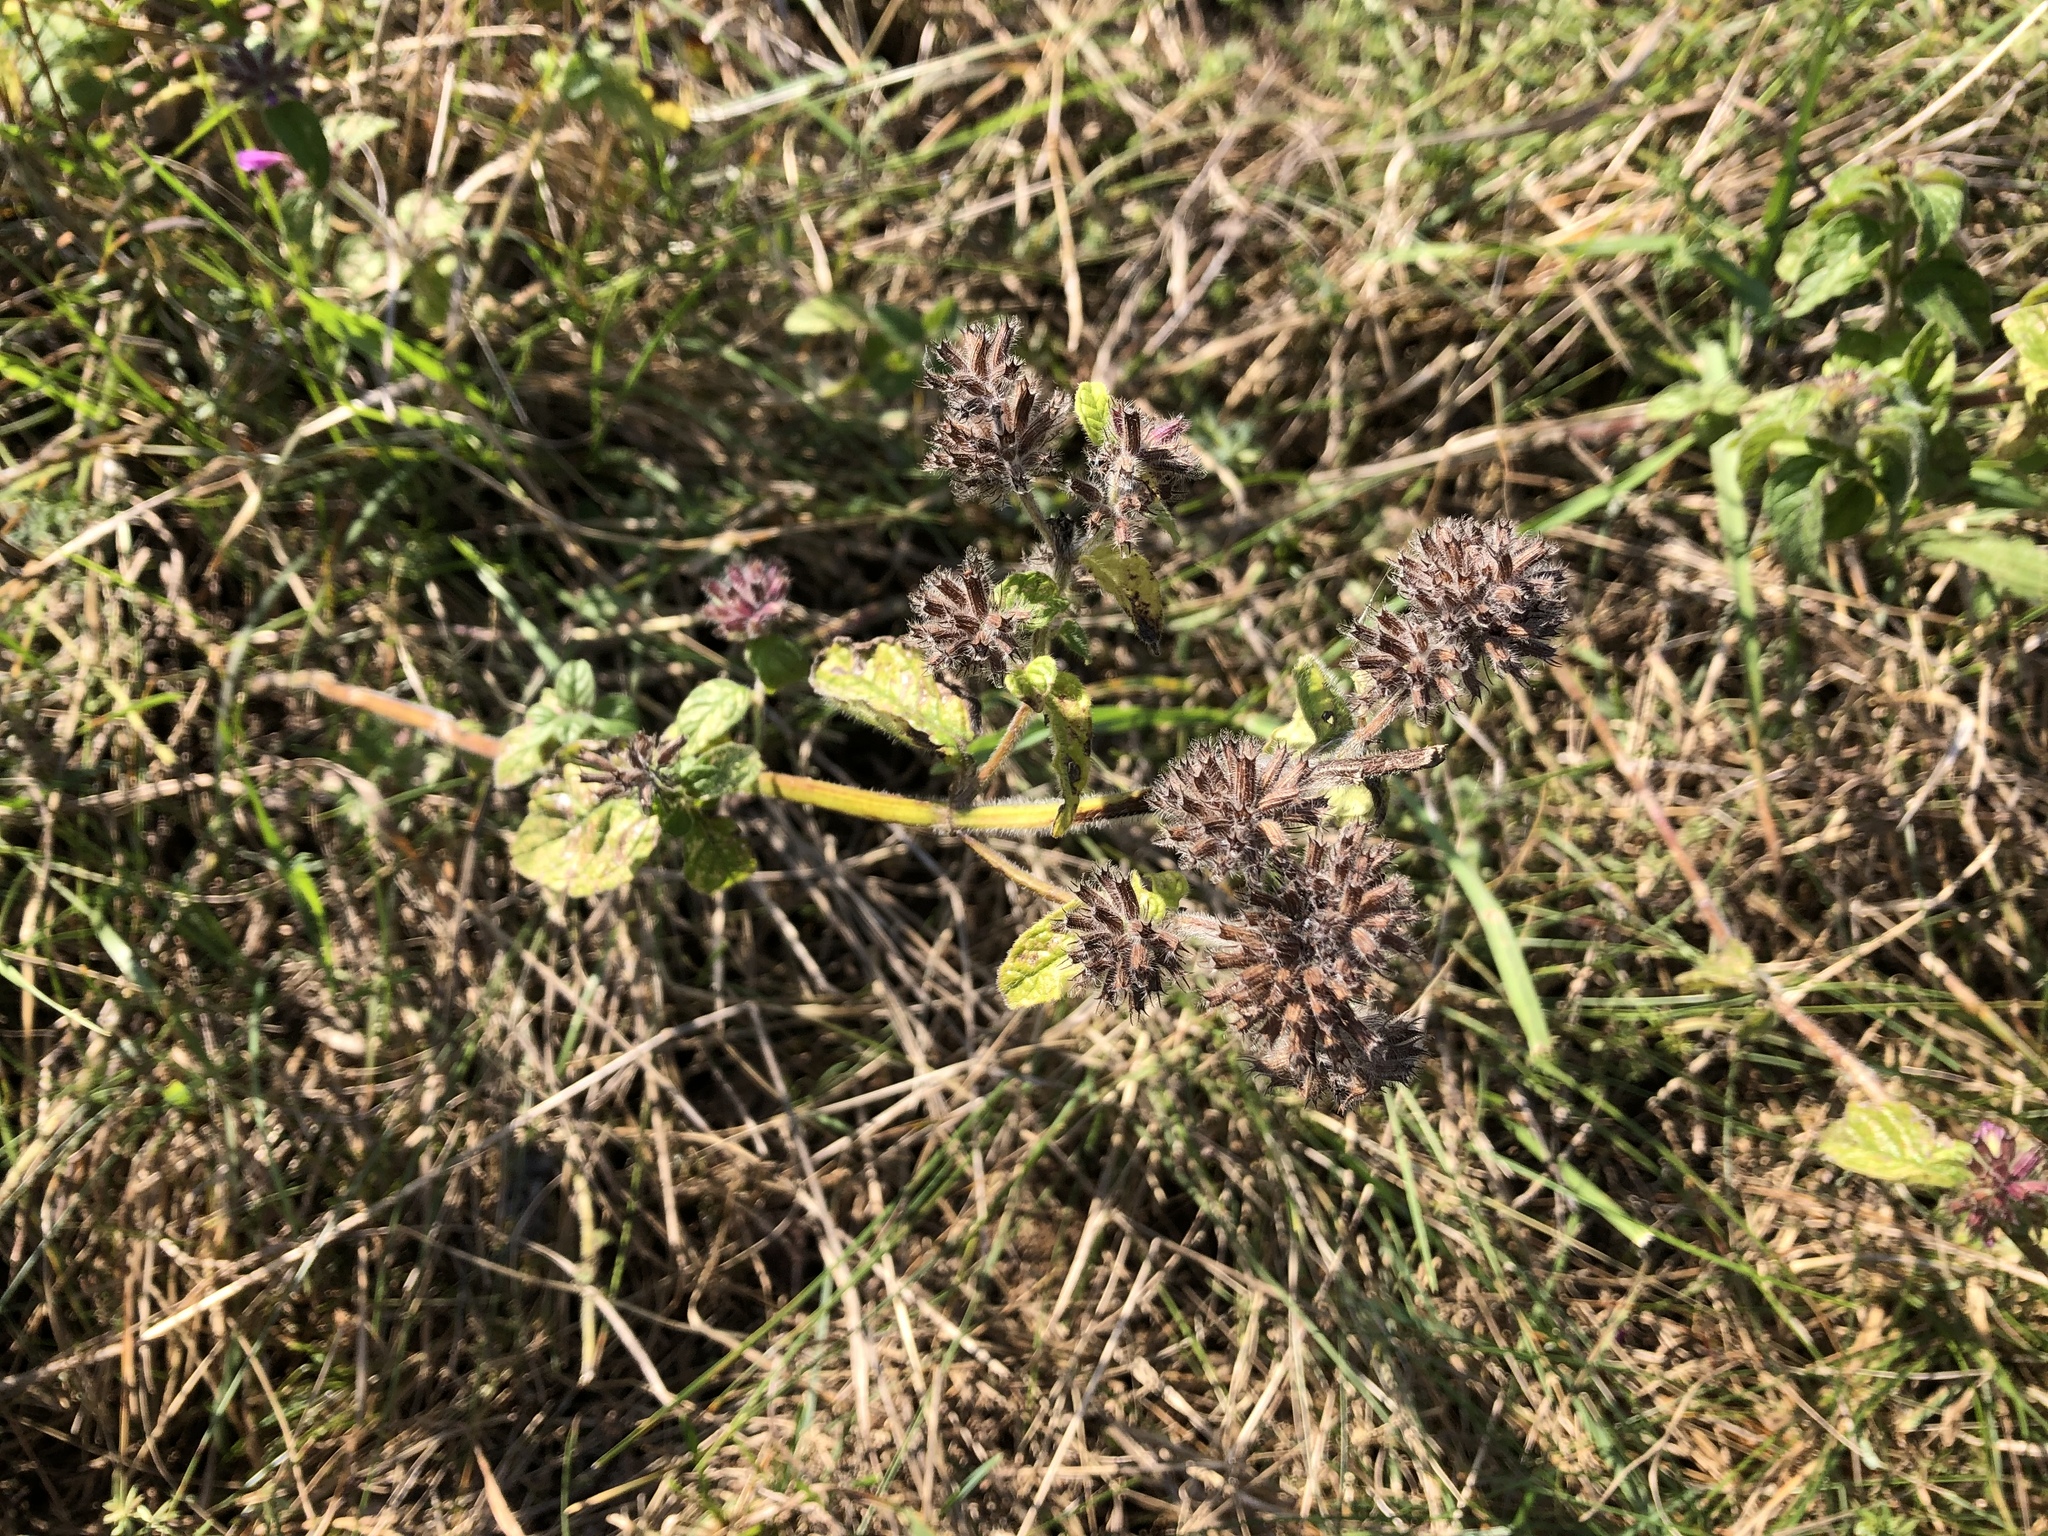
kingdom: Plantae
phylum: Tracheophyta
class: Magnoliopsida
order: Lamiales
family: Lamiaceae
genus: Clinopodium
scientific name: Clinopodium vulgare
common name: Wild basil
